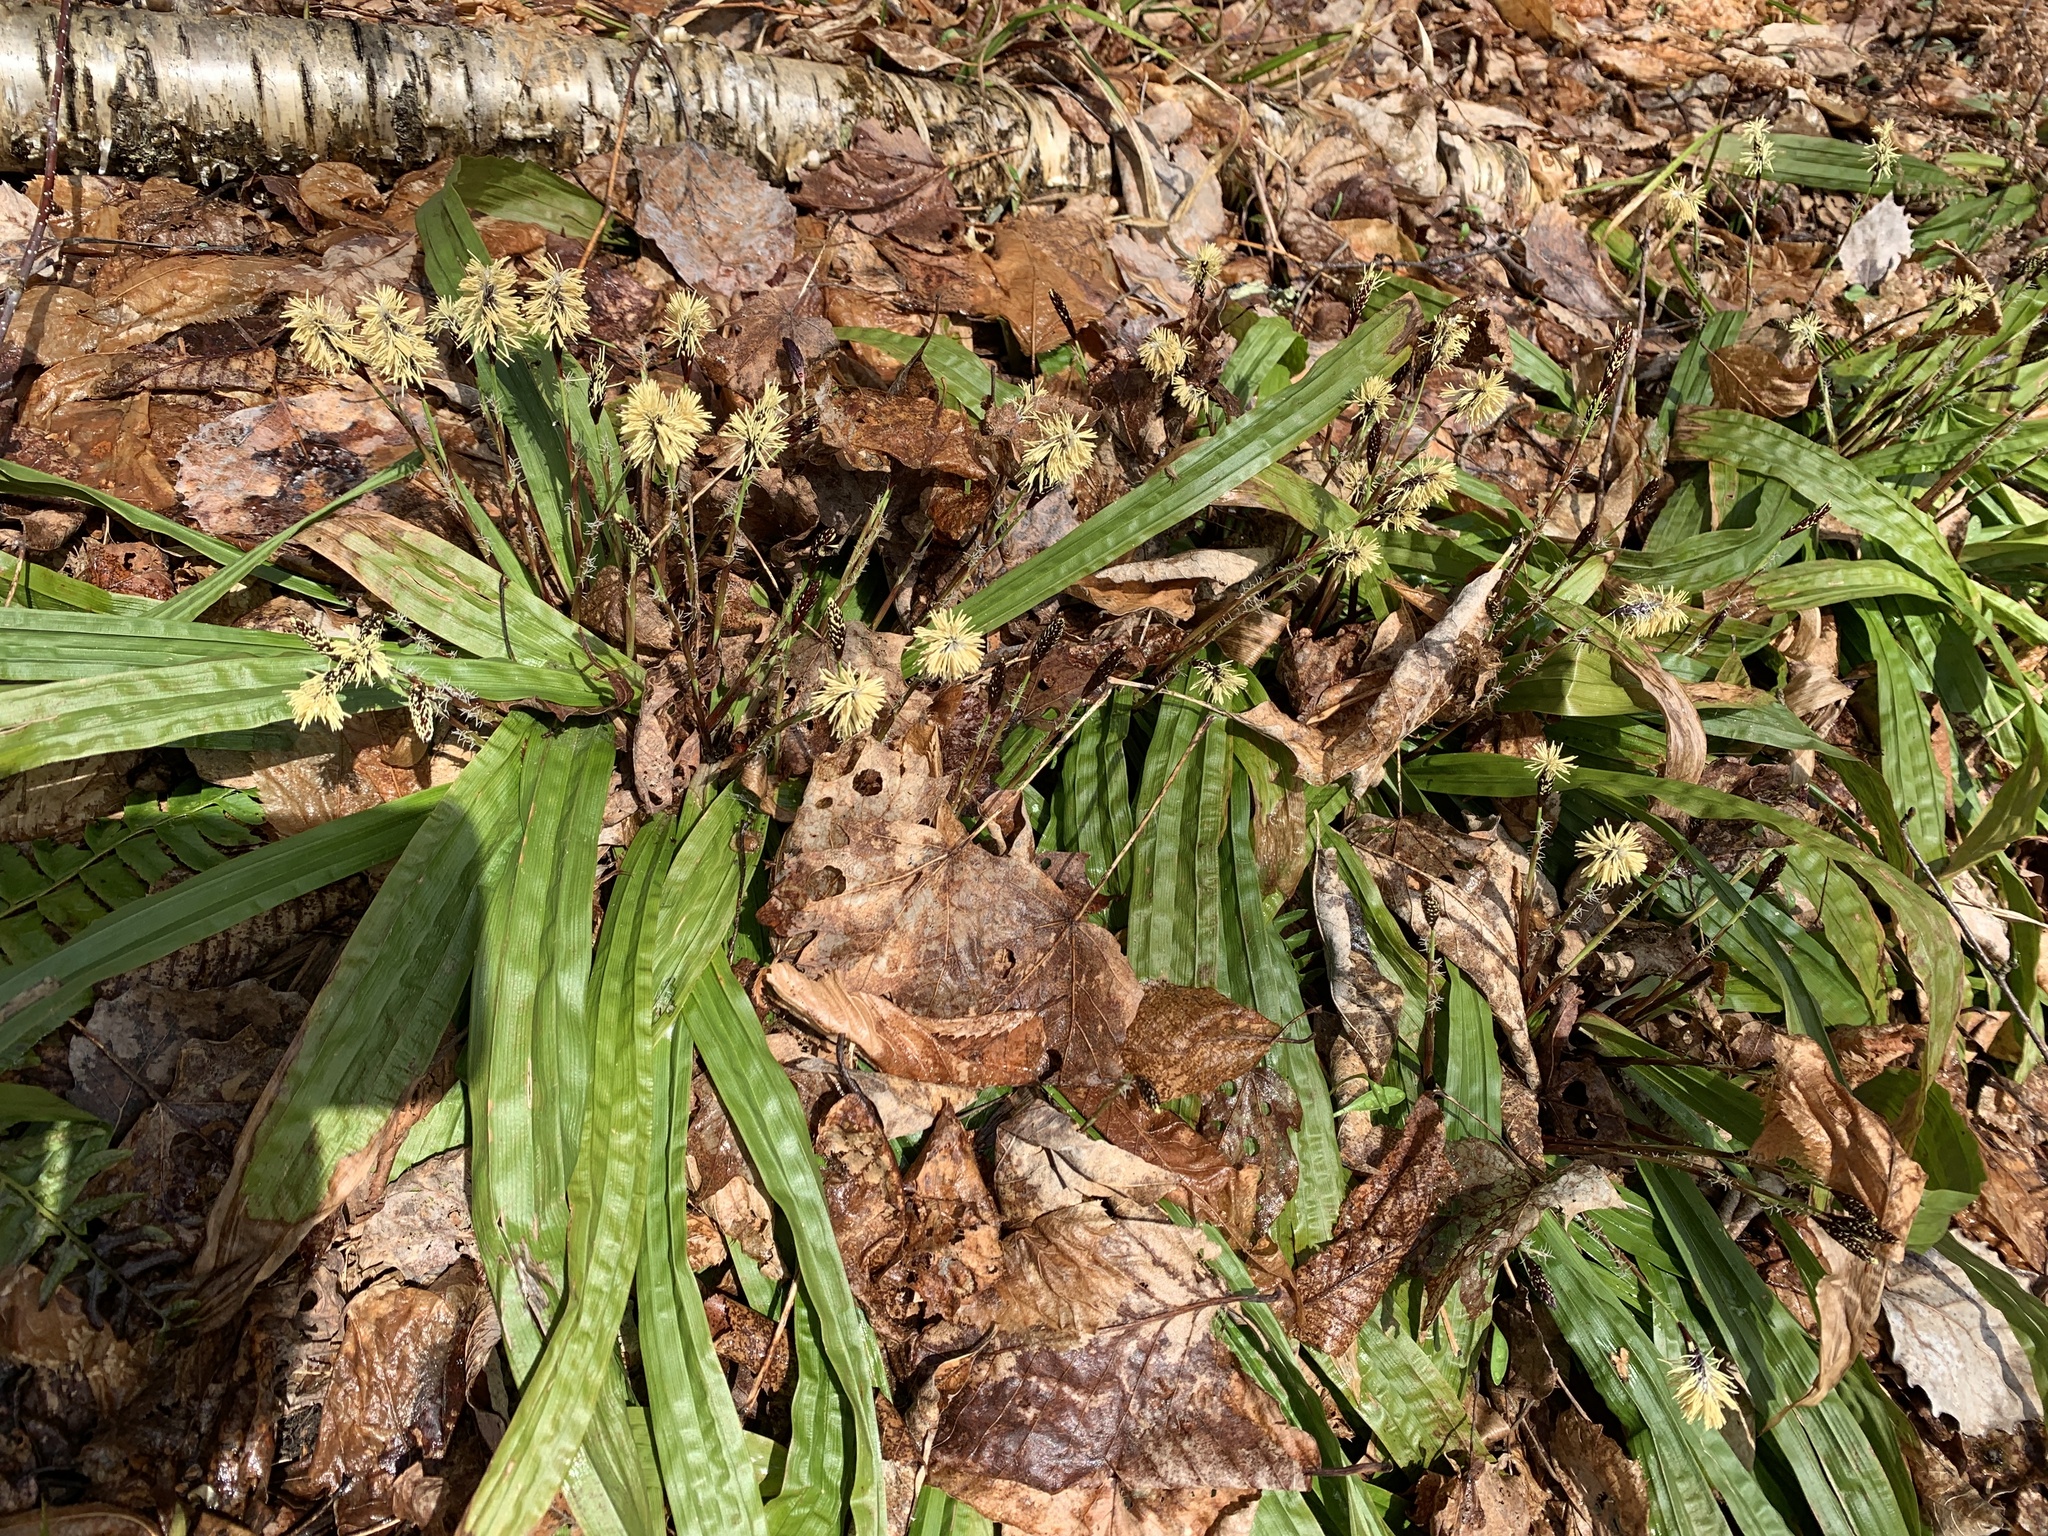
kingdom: Plantae
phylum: Tracheophyta
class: Liliopsida
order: Poales
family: Cyperaceae
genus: Carex
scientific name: Carex plantaginea
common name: Plantain-leaved sedge
